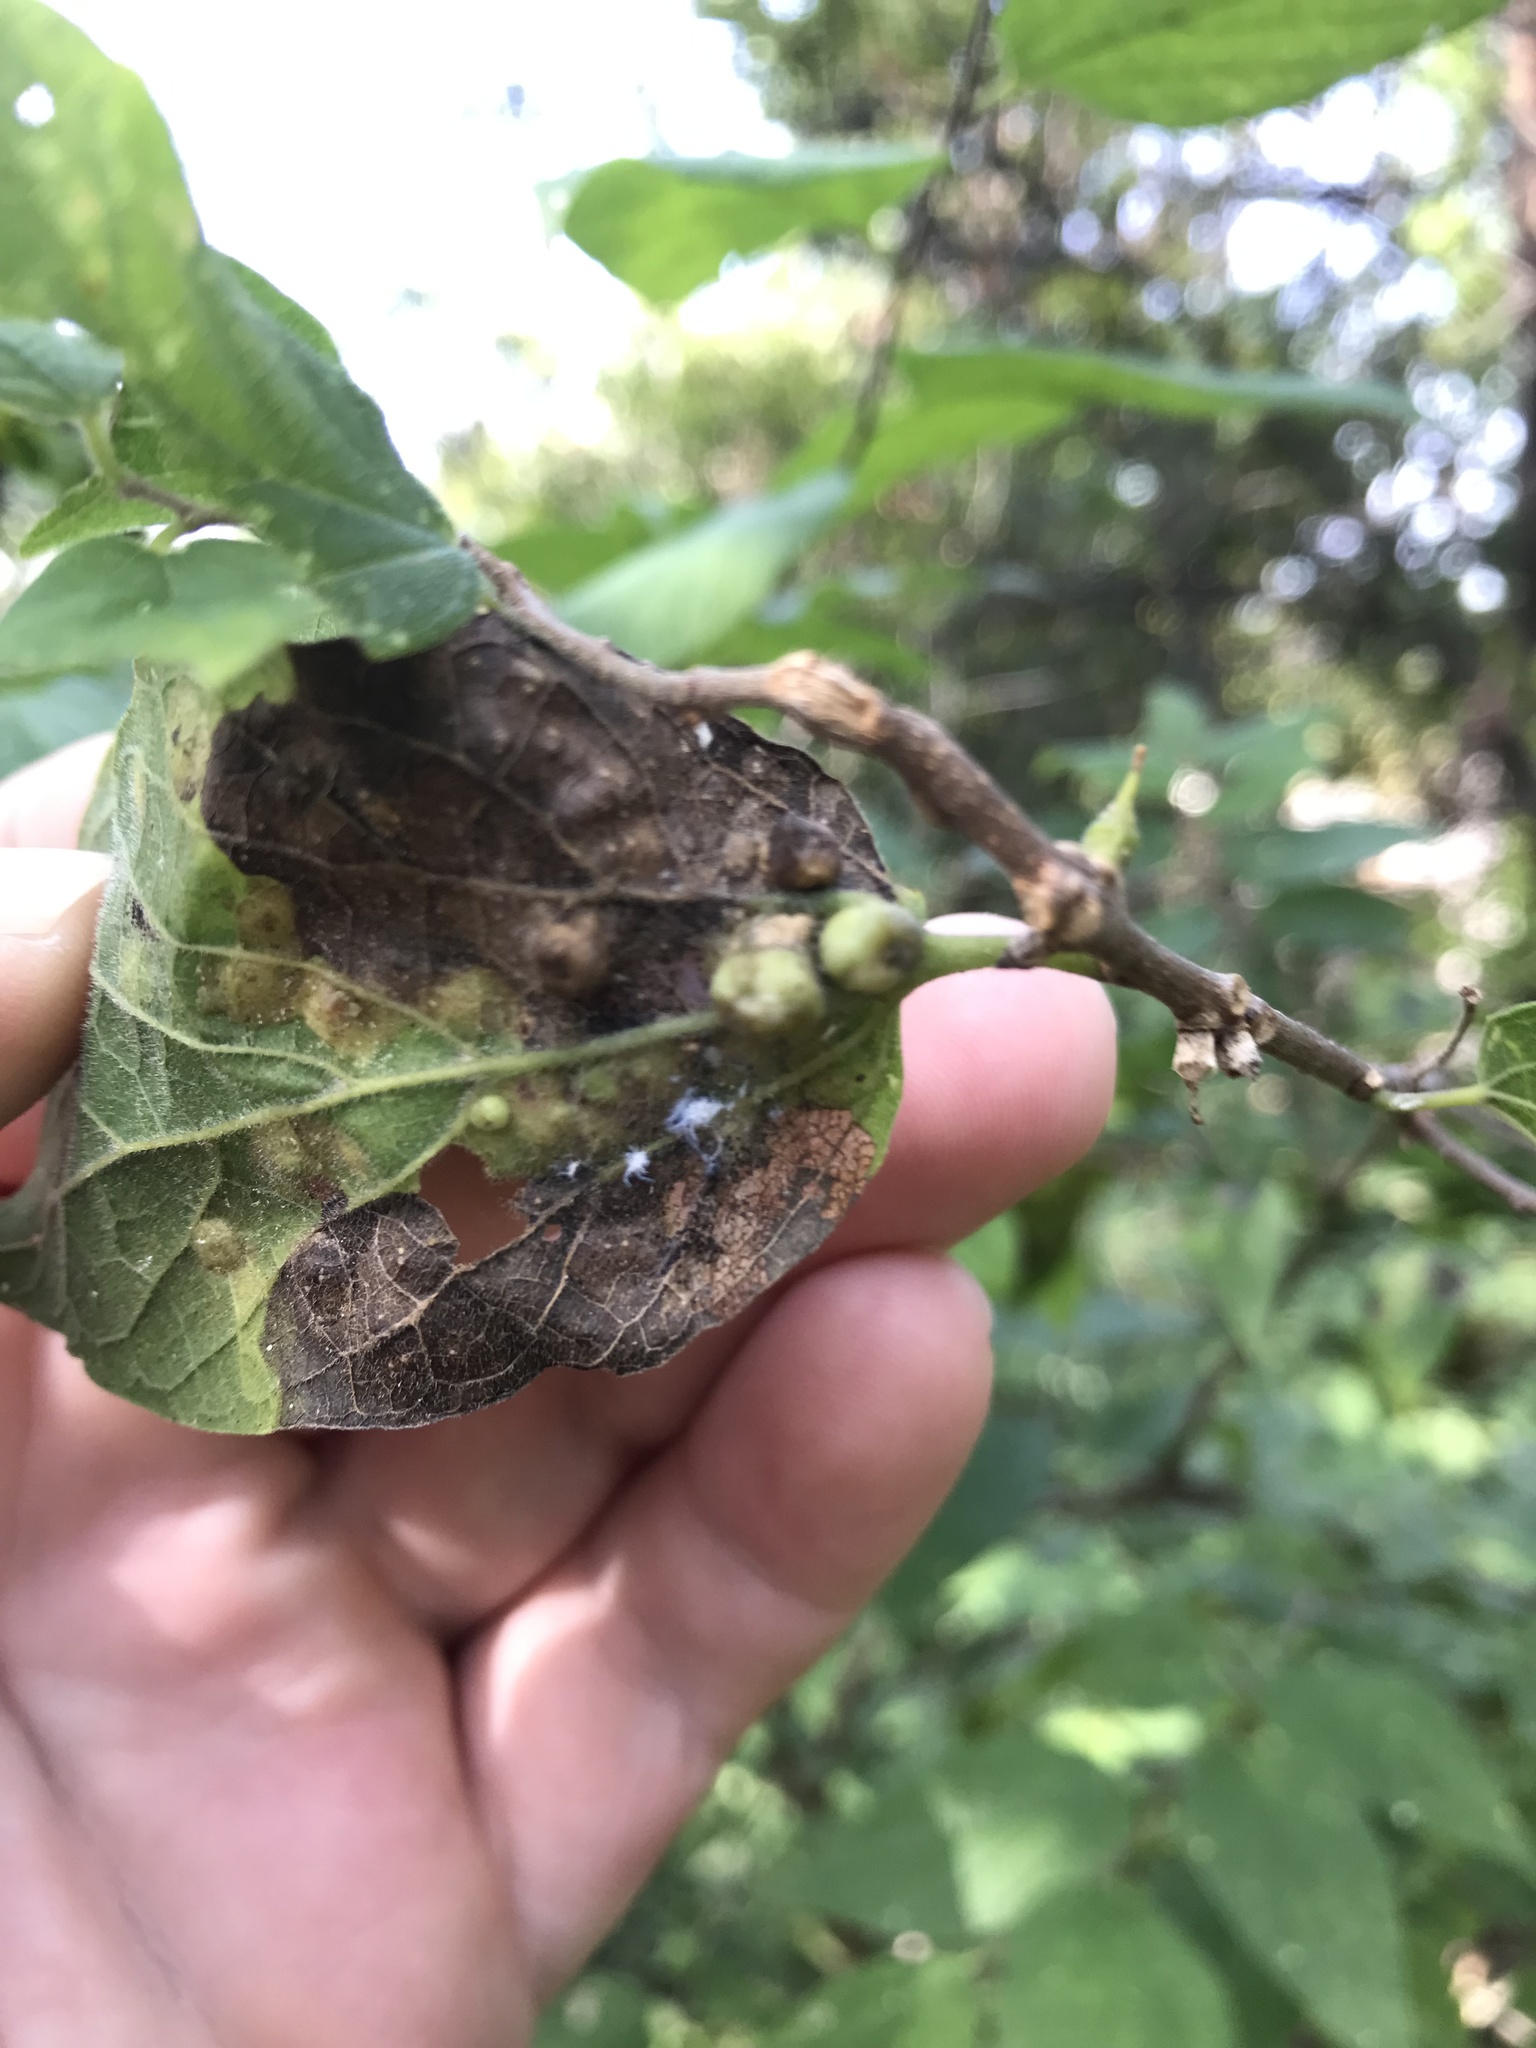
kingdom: Animalia
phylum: Arthropoda
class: Insecta
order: Hemiptera
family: Aphalaridae
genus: Pachypsylla
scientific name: Pachypsylla celtidismamma
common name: Hackberry nipplegall psyllid
